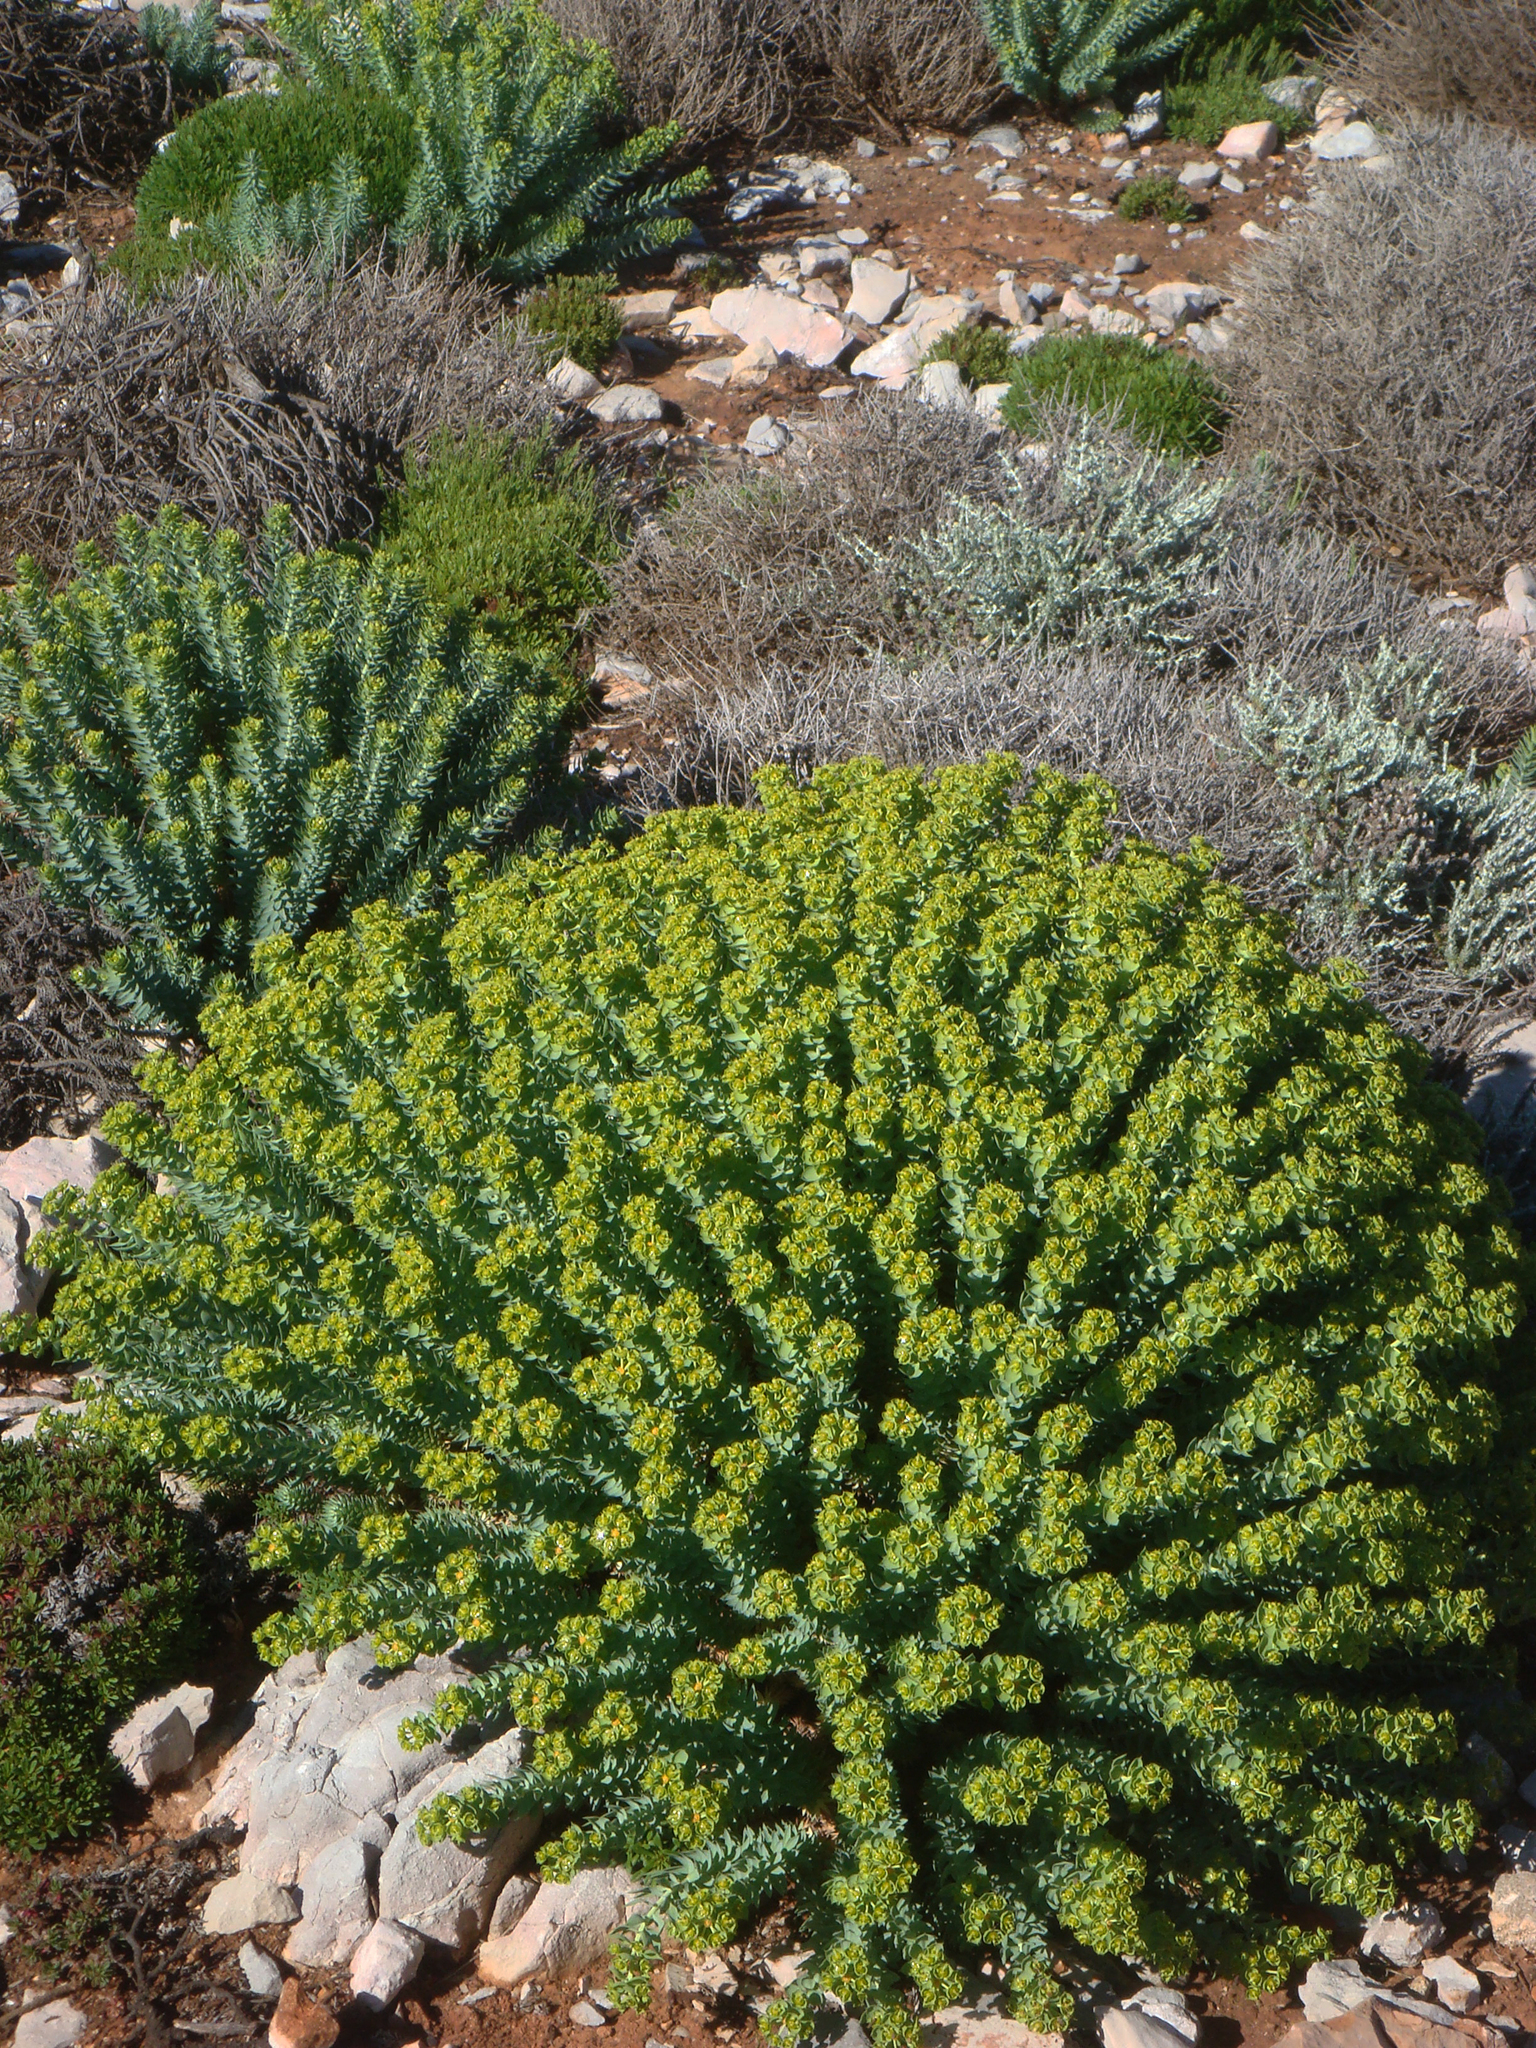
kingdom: Plantae
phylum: Tracheophyta
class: Magnoliopsida
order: Malpighiales
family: Euphorbiaceae
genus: Euphorbia
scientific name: Euphorbia pithyusa
